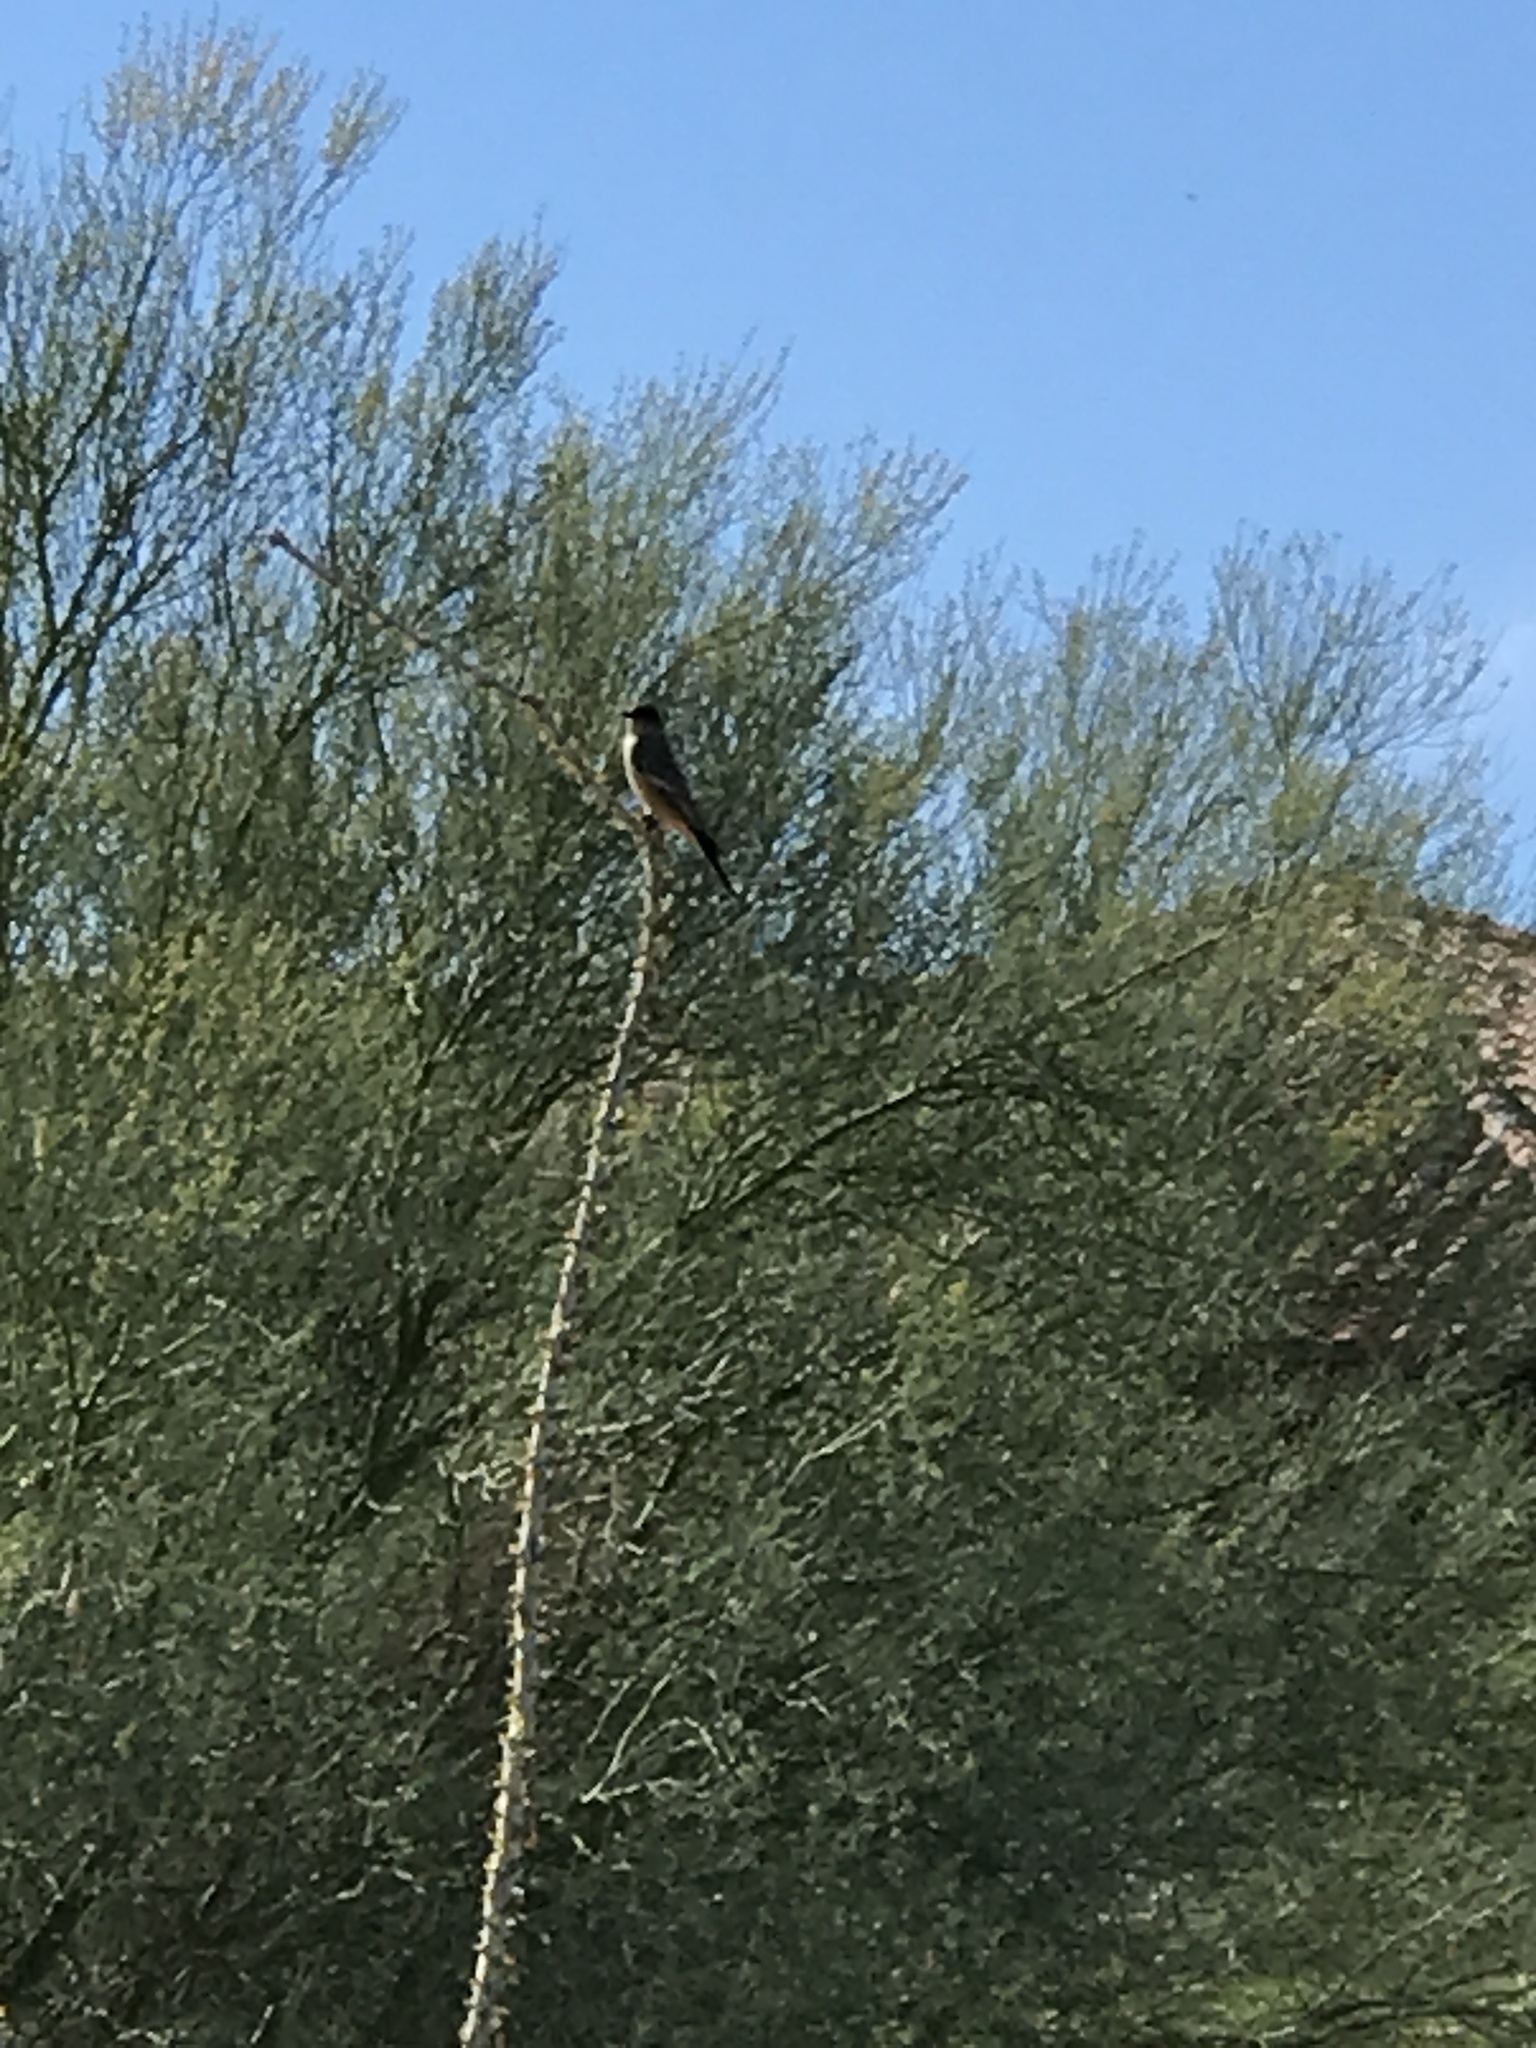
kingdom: Animalia
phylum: Chordata
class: Aves
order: Passeriformes
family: Tyrannidae
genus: Sayornis
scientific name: Sayornis saya
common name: Say's phoebe
